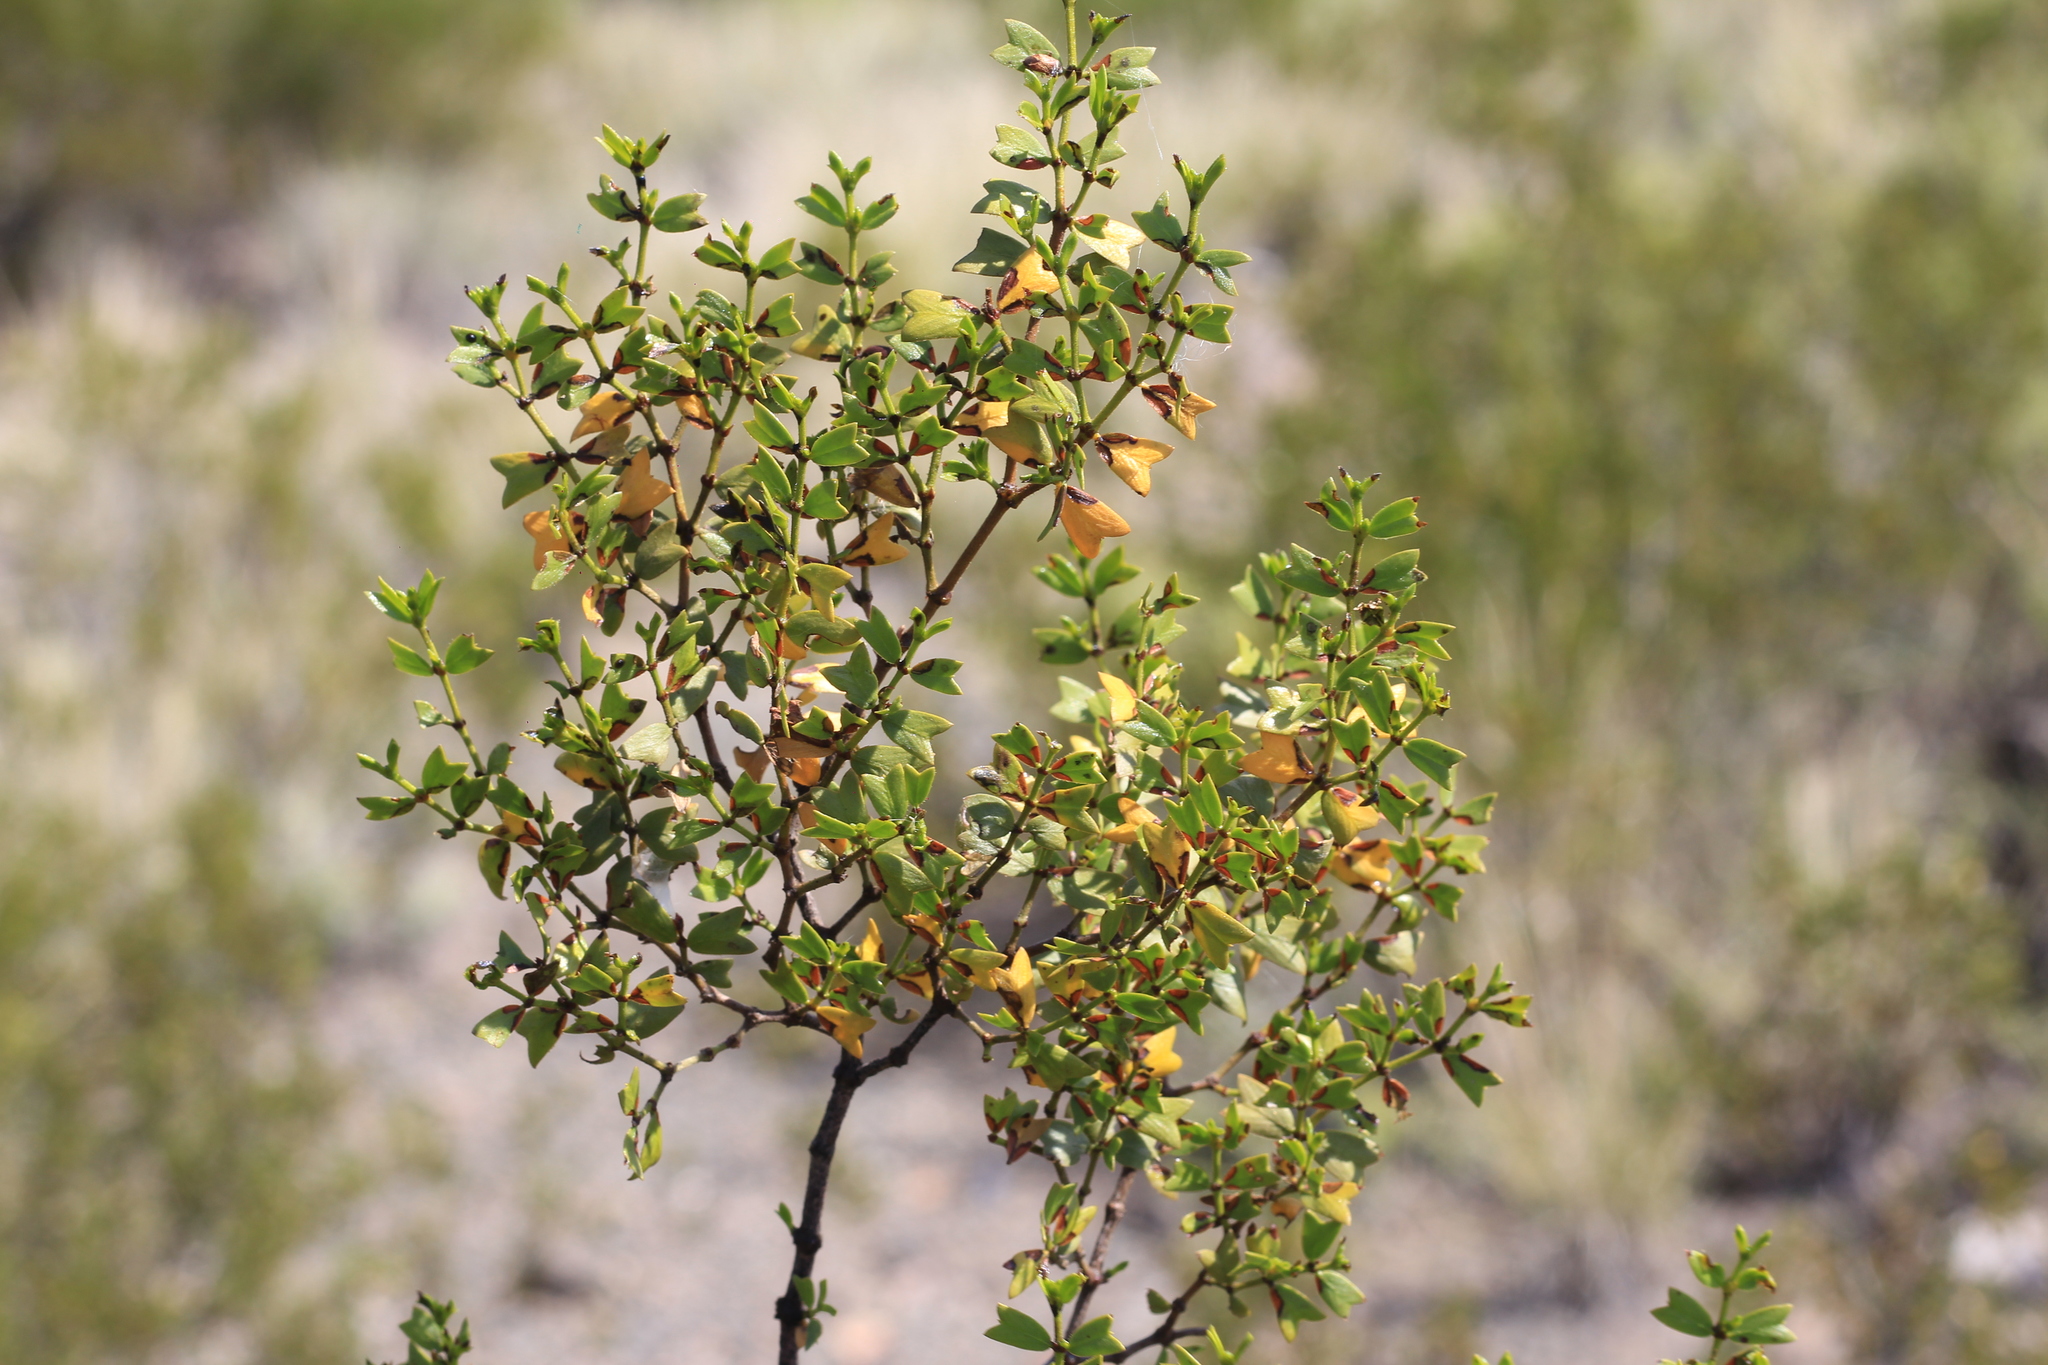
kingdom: Plantae
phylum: Tracheophyta
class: Magnoliopsida
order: Zygophyllales
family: Zygophyllaceae
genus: Larrea
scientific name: Larrea cuneifolia
